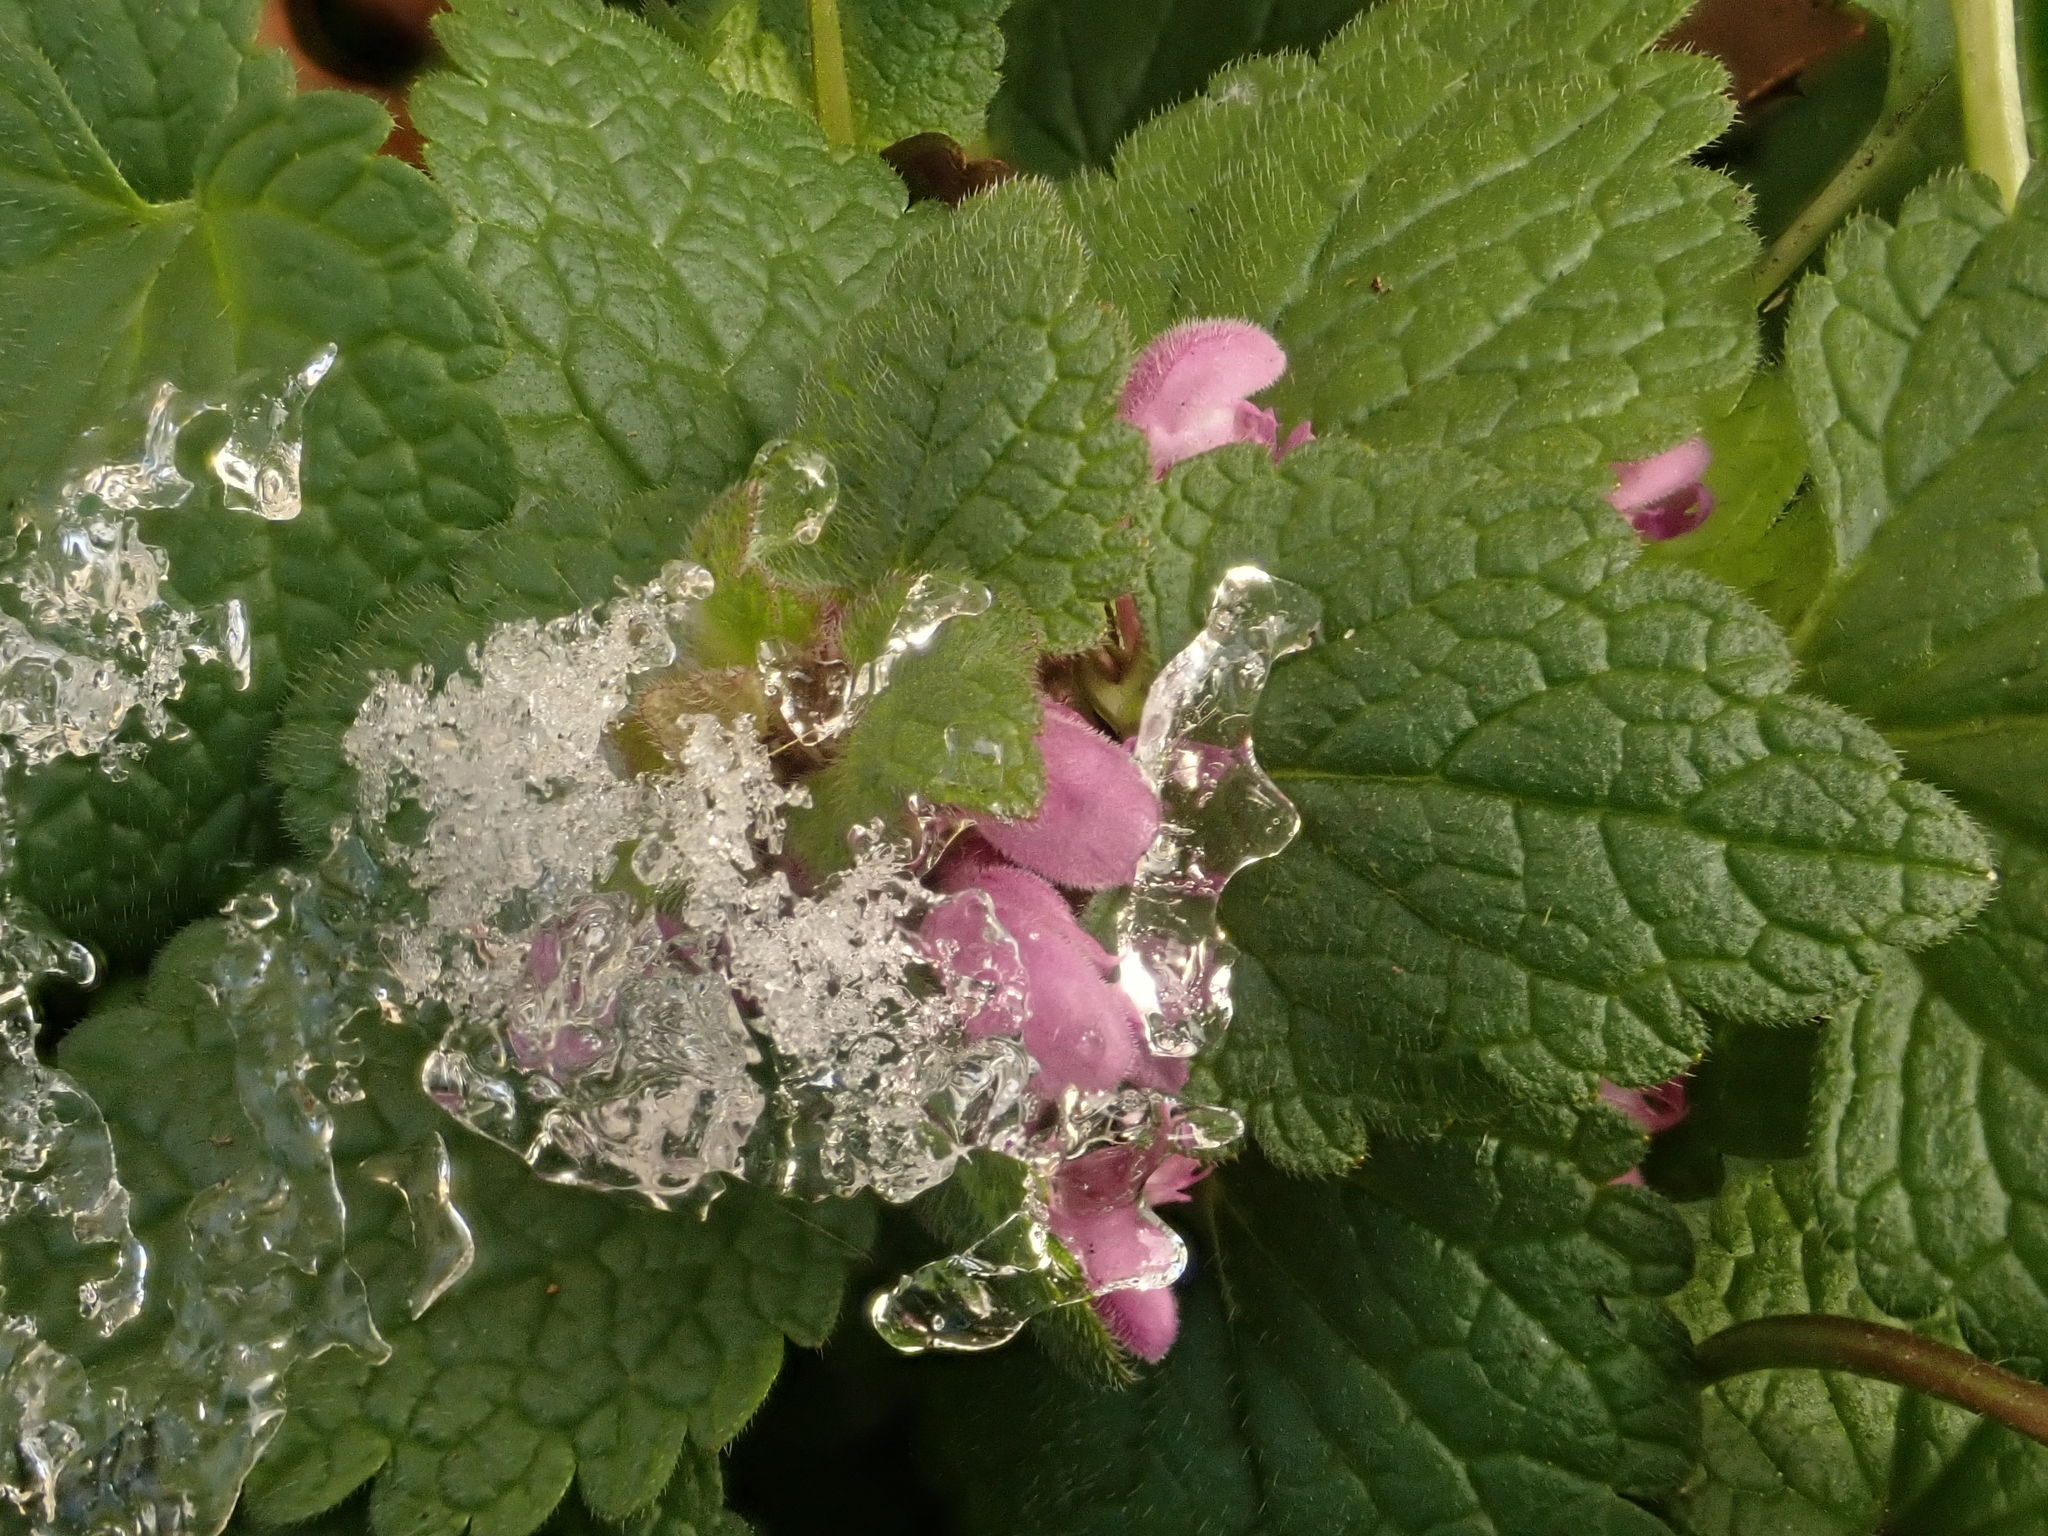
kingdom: Plantae
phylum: Tracheophyta
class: Magnoliopsida
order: Lamiales
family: Lamiaceae
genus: Lamium
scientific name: Lamium purpureum
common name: Red dead-nettle
